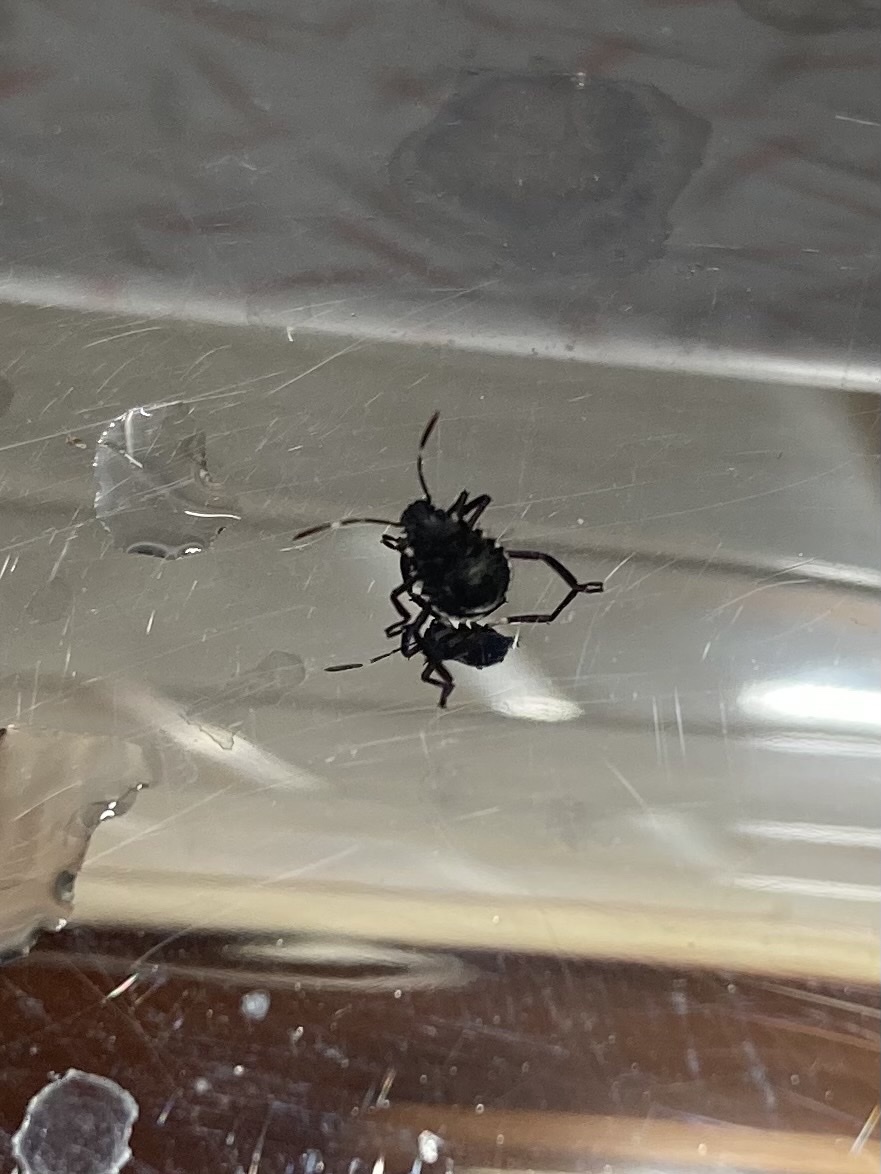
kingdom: Animalia
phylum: Arthropoda
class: Insecta
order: Hemiptera
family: Pentatomidae
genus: Halyomorpha
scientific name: Halyomorpha halys
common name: Brown marmorated stink bug
